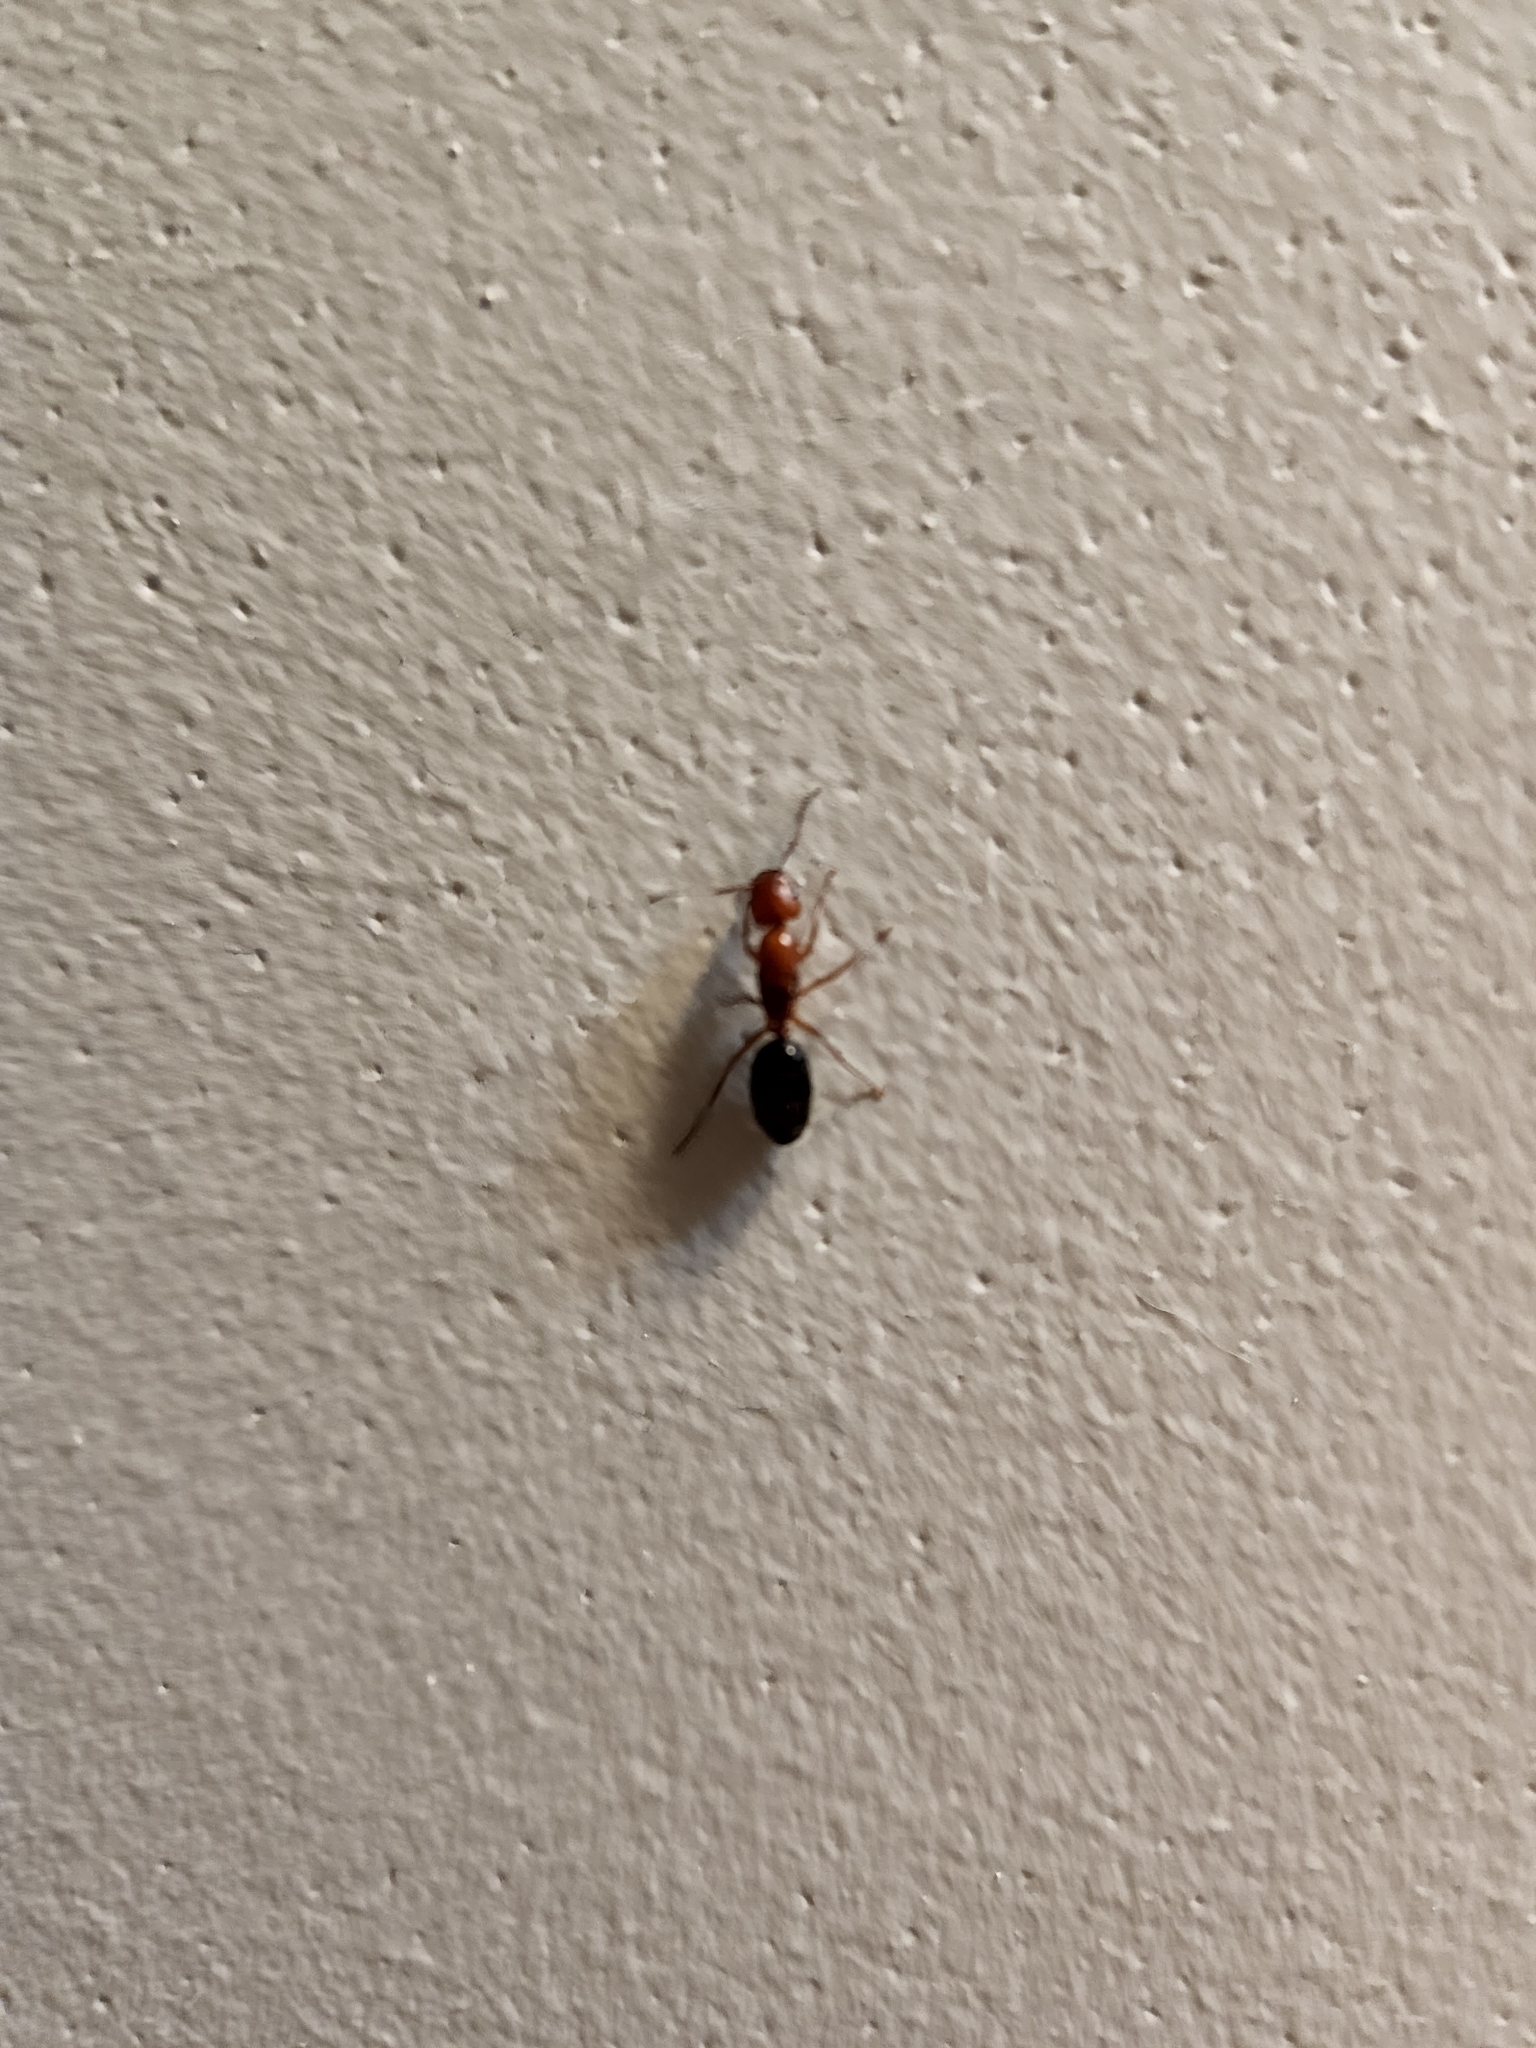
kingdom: Animalia
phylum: Arthropoda
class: Insecta
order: Hymenoptera
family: Formicidae
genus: Camponotus
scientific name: Camponotus decipiens
